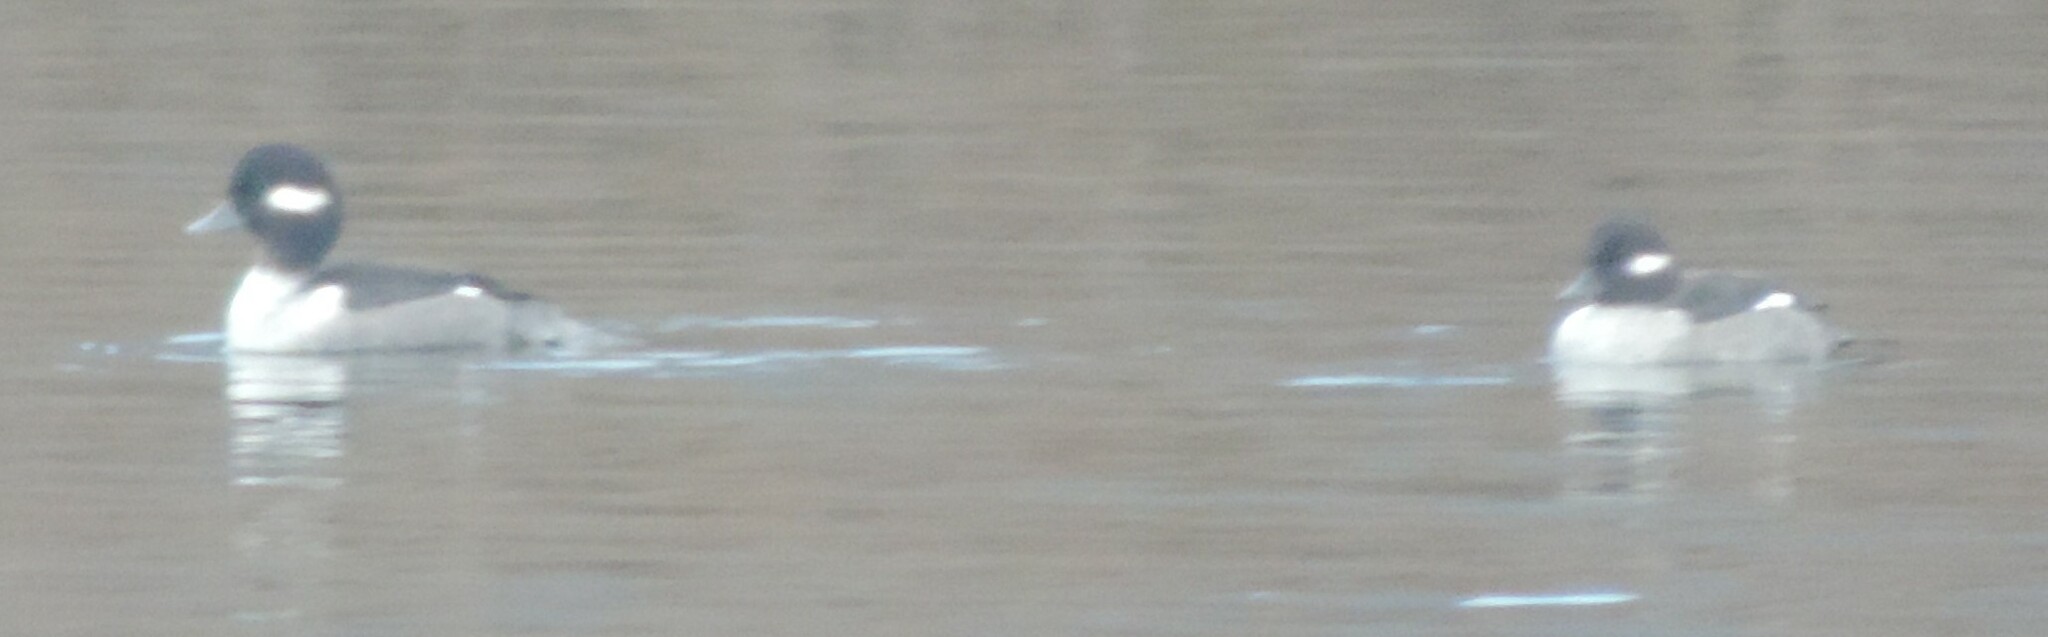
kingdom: Animalia
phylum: Chordata
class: Aves
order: Anseriformes
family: Anatidae
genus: Bucephala
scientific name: Bucephala albeola
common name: Bufflehead
